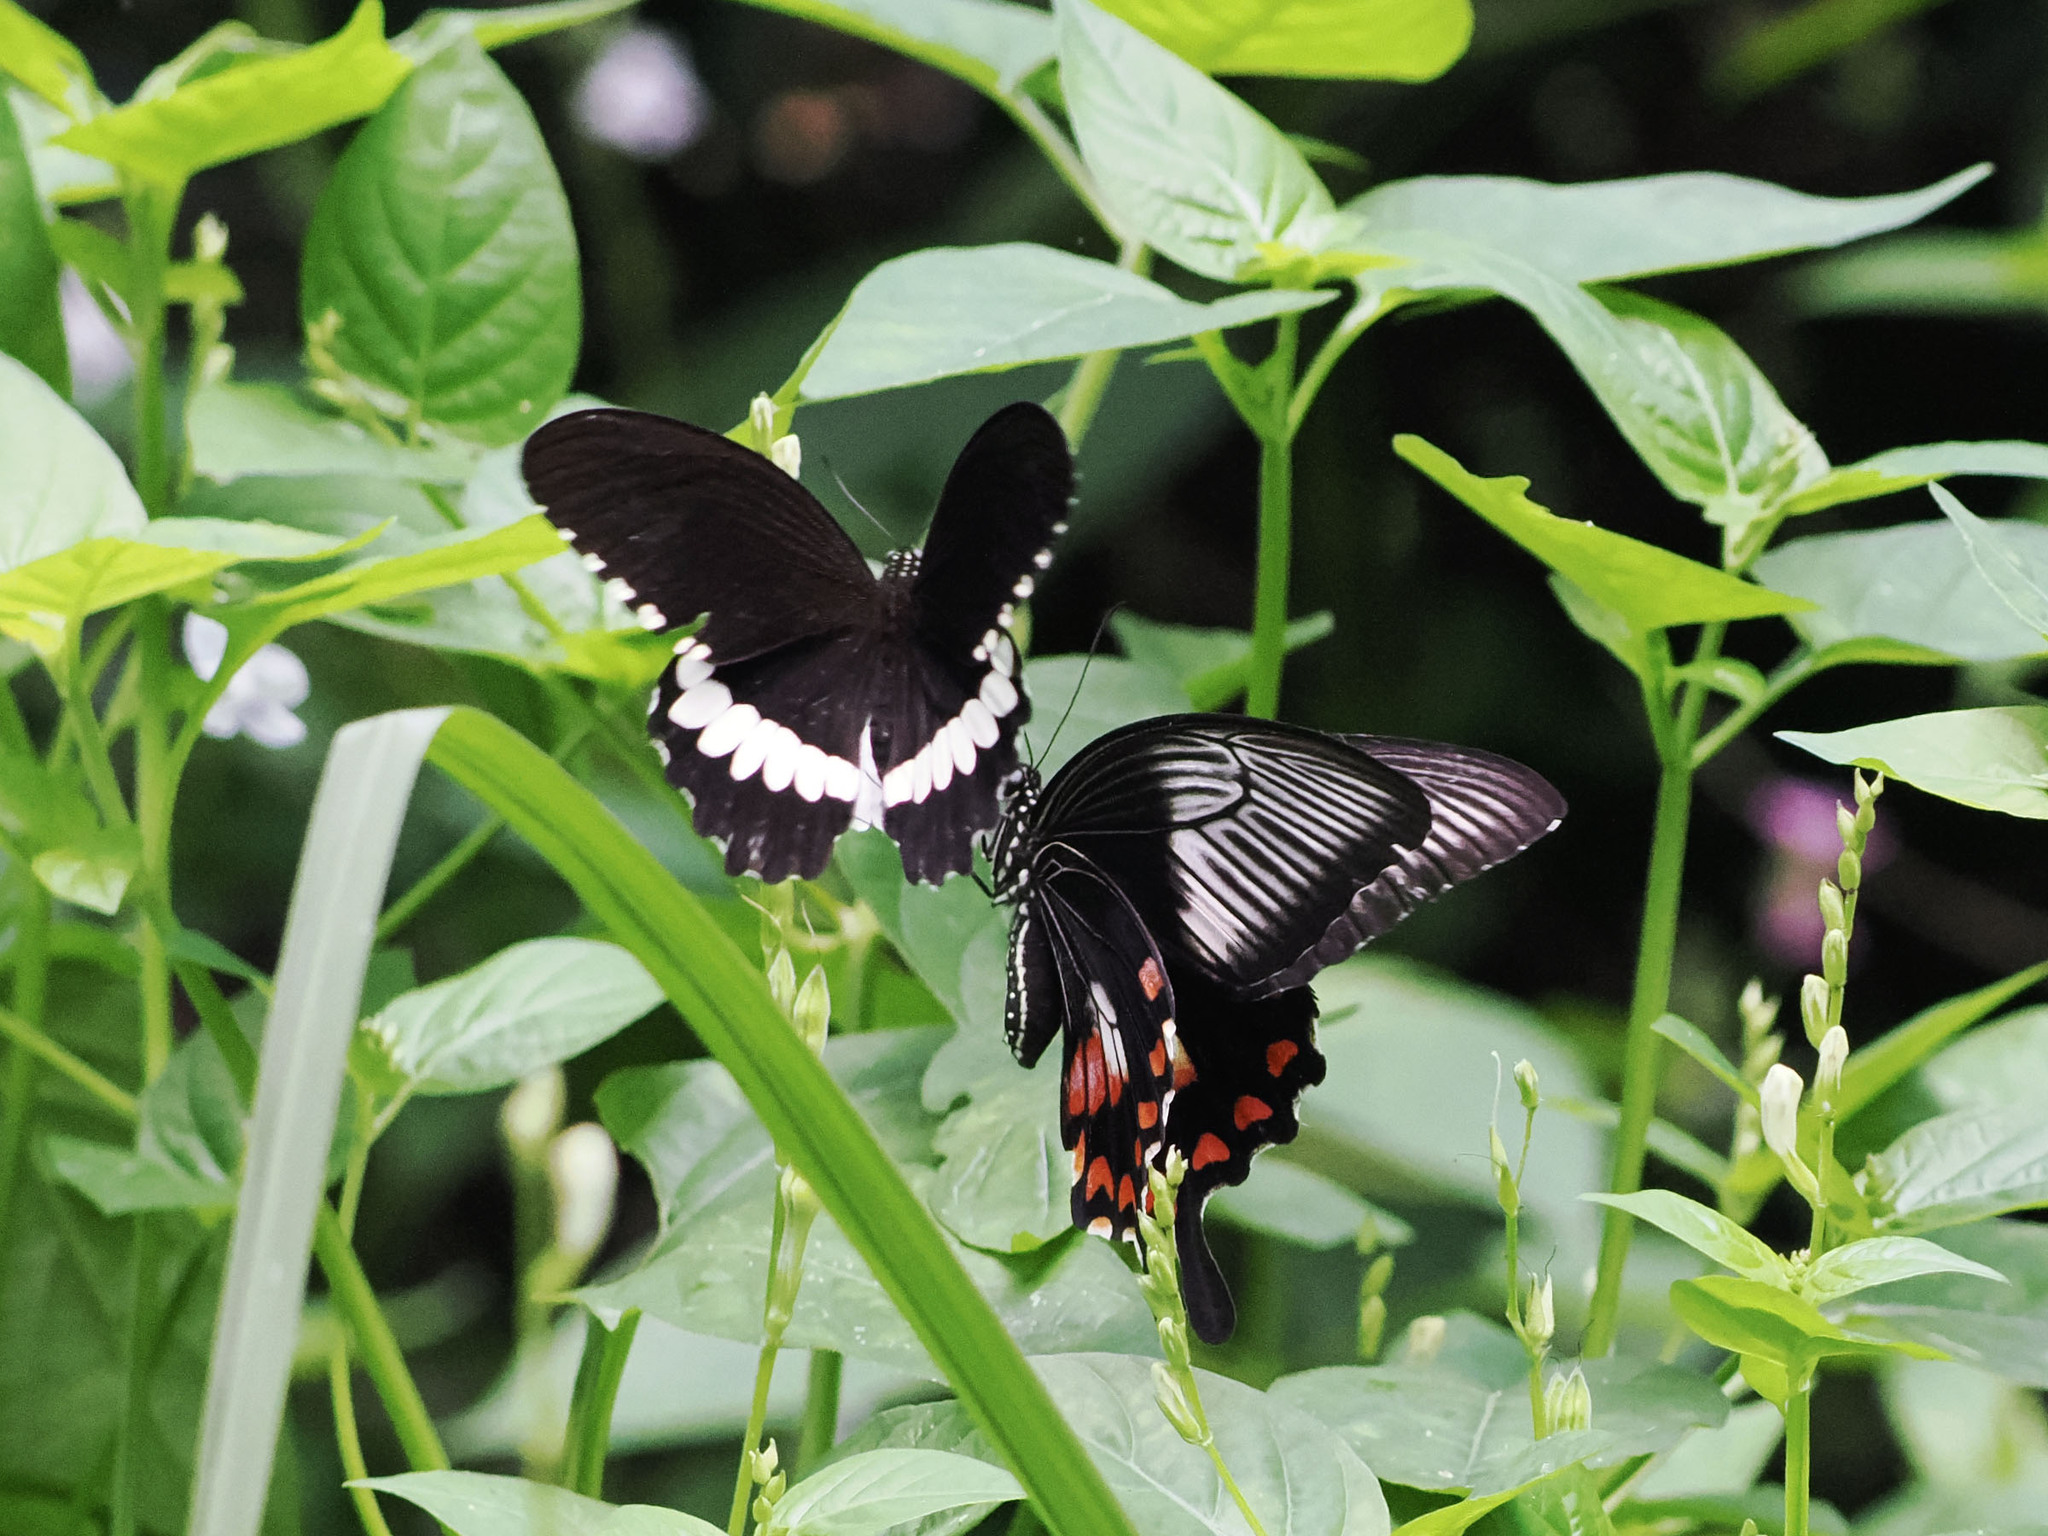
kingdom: Animalia
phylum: Arthropoda
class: Insecta
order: Lepidoptera
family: Papilionidae
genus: Papilio
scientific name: Papilio alphenor
